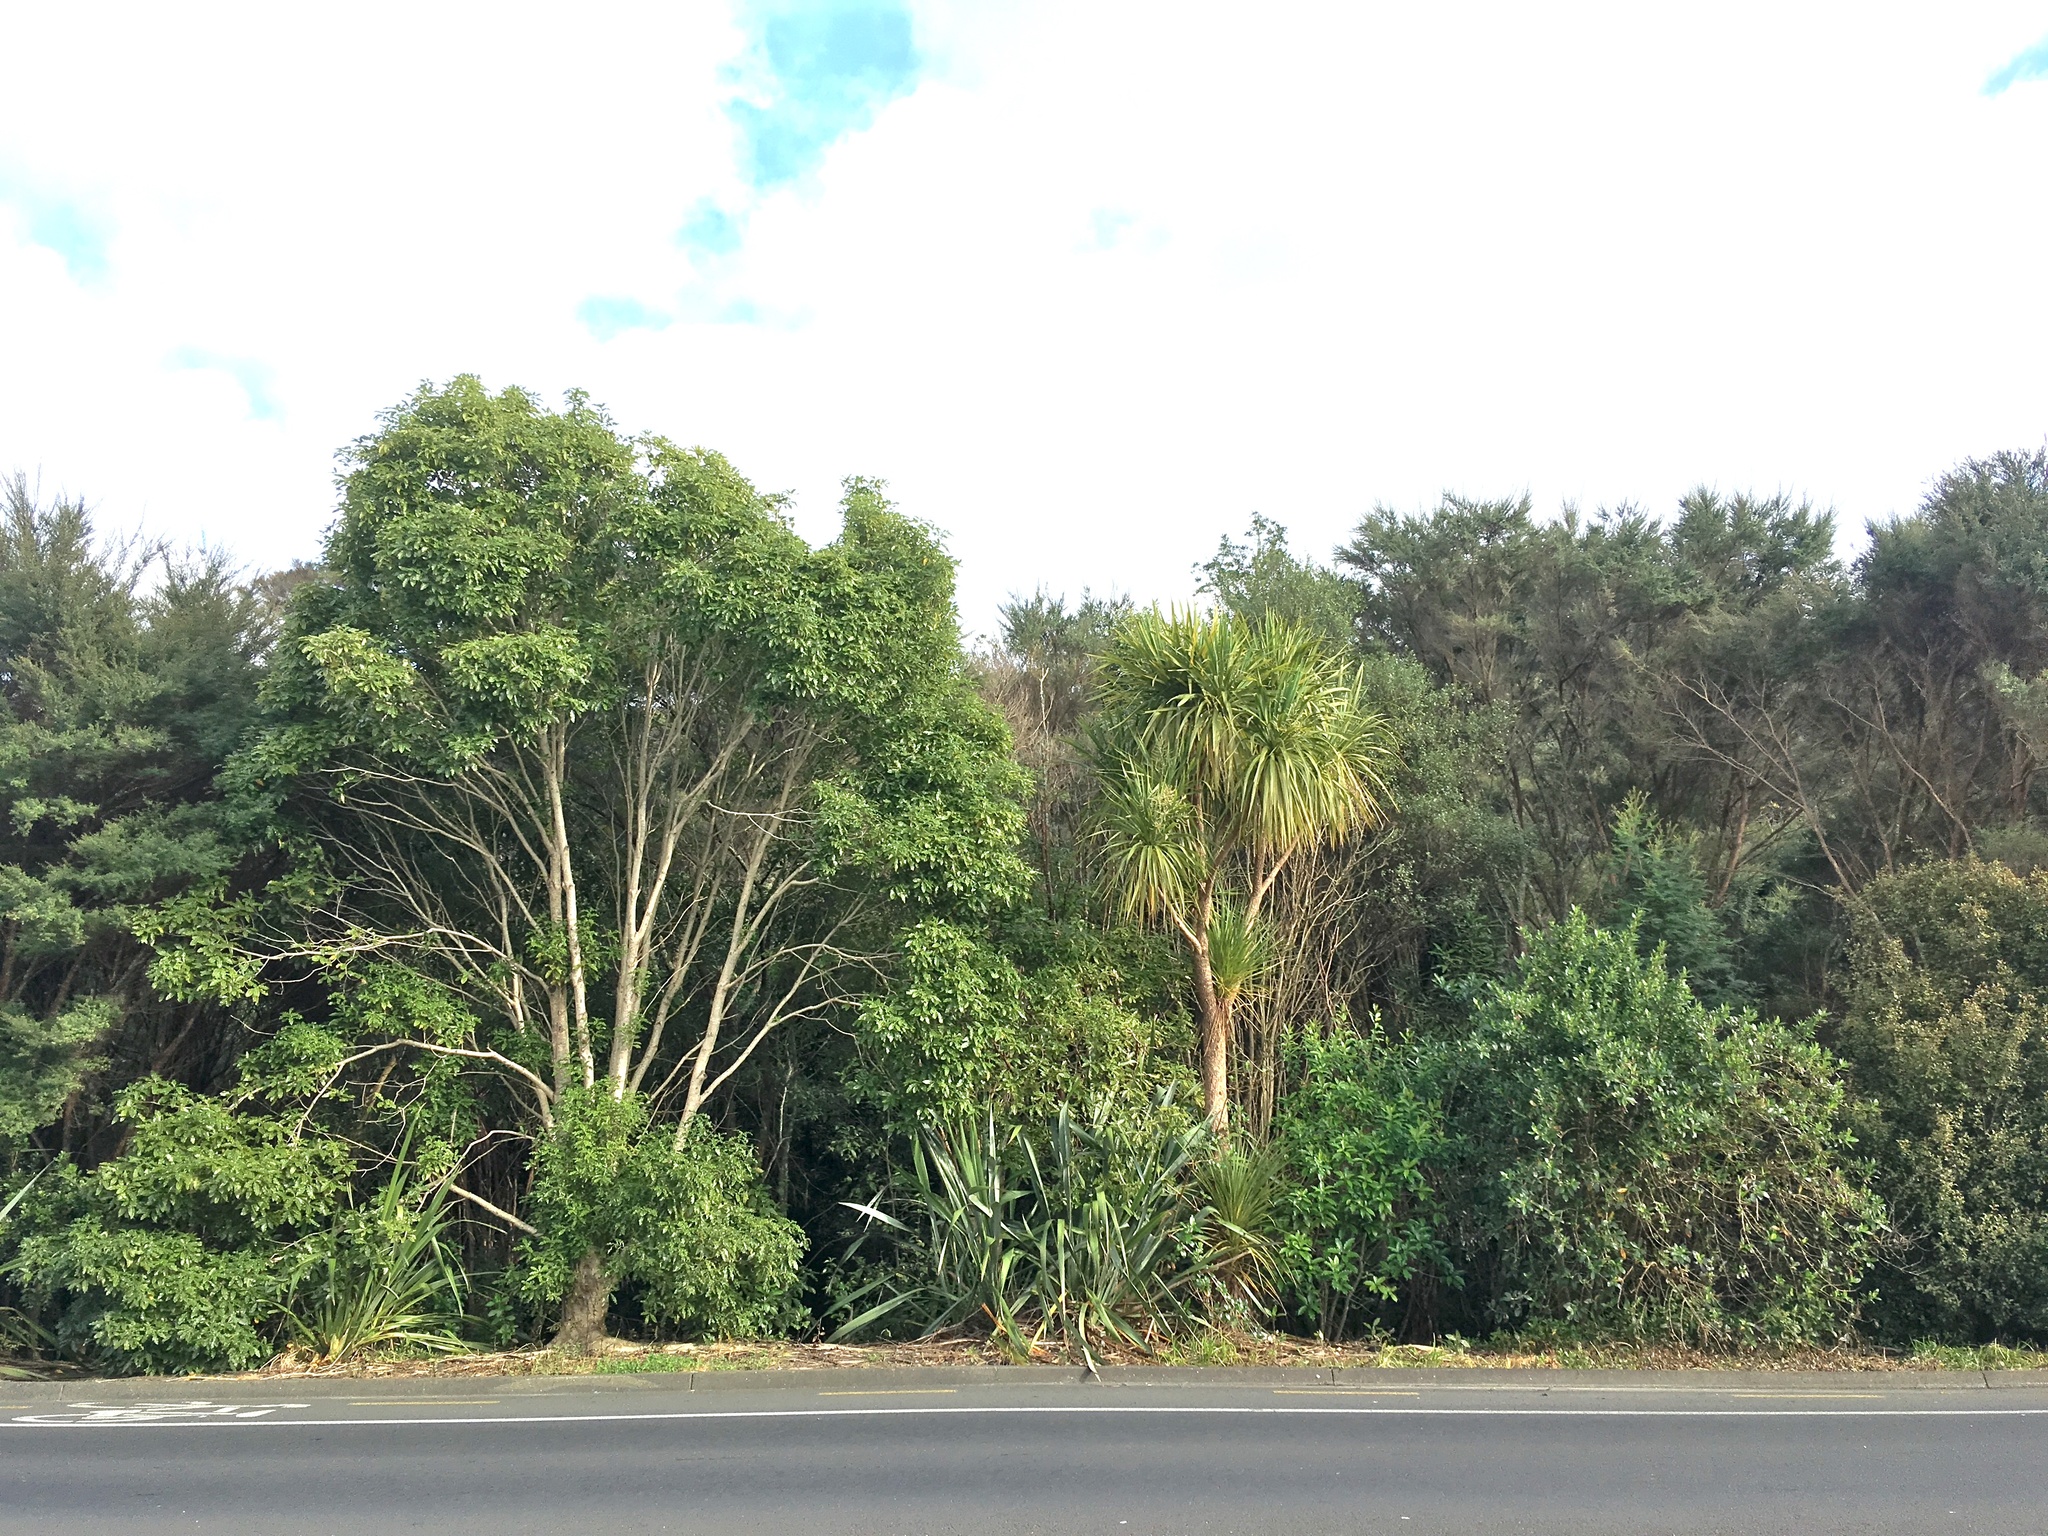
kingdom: Plantae
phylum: Tracheophyta
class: Liliopsida
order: Asparagales
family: Asparagaceae
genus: Cordyline
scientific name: Cordyline australis
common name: Cabbage-palm
